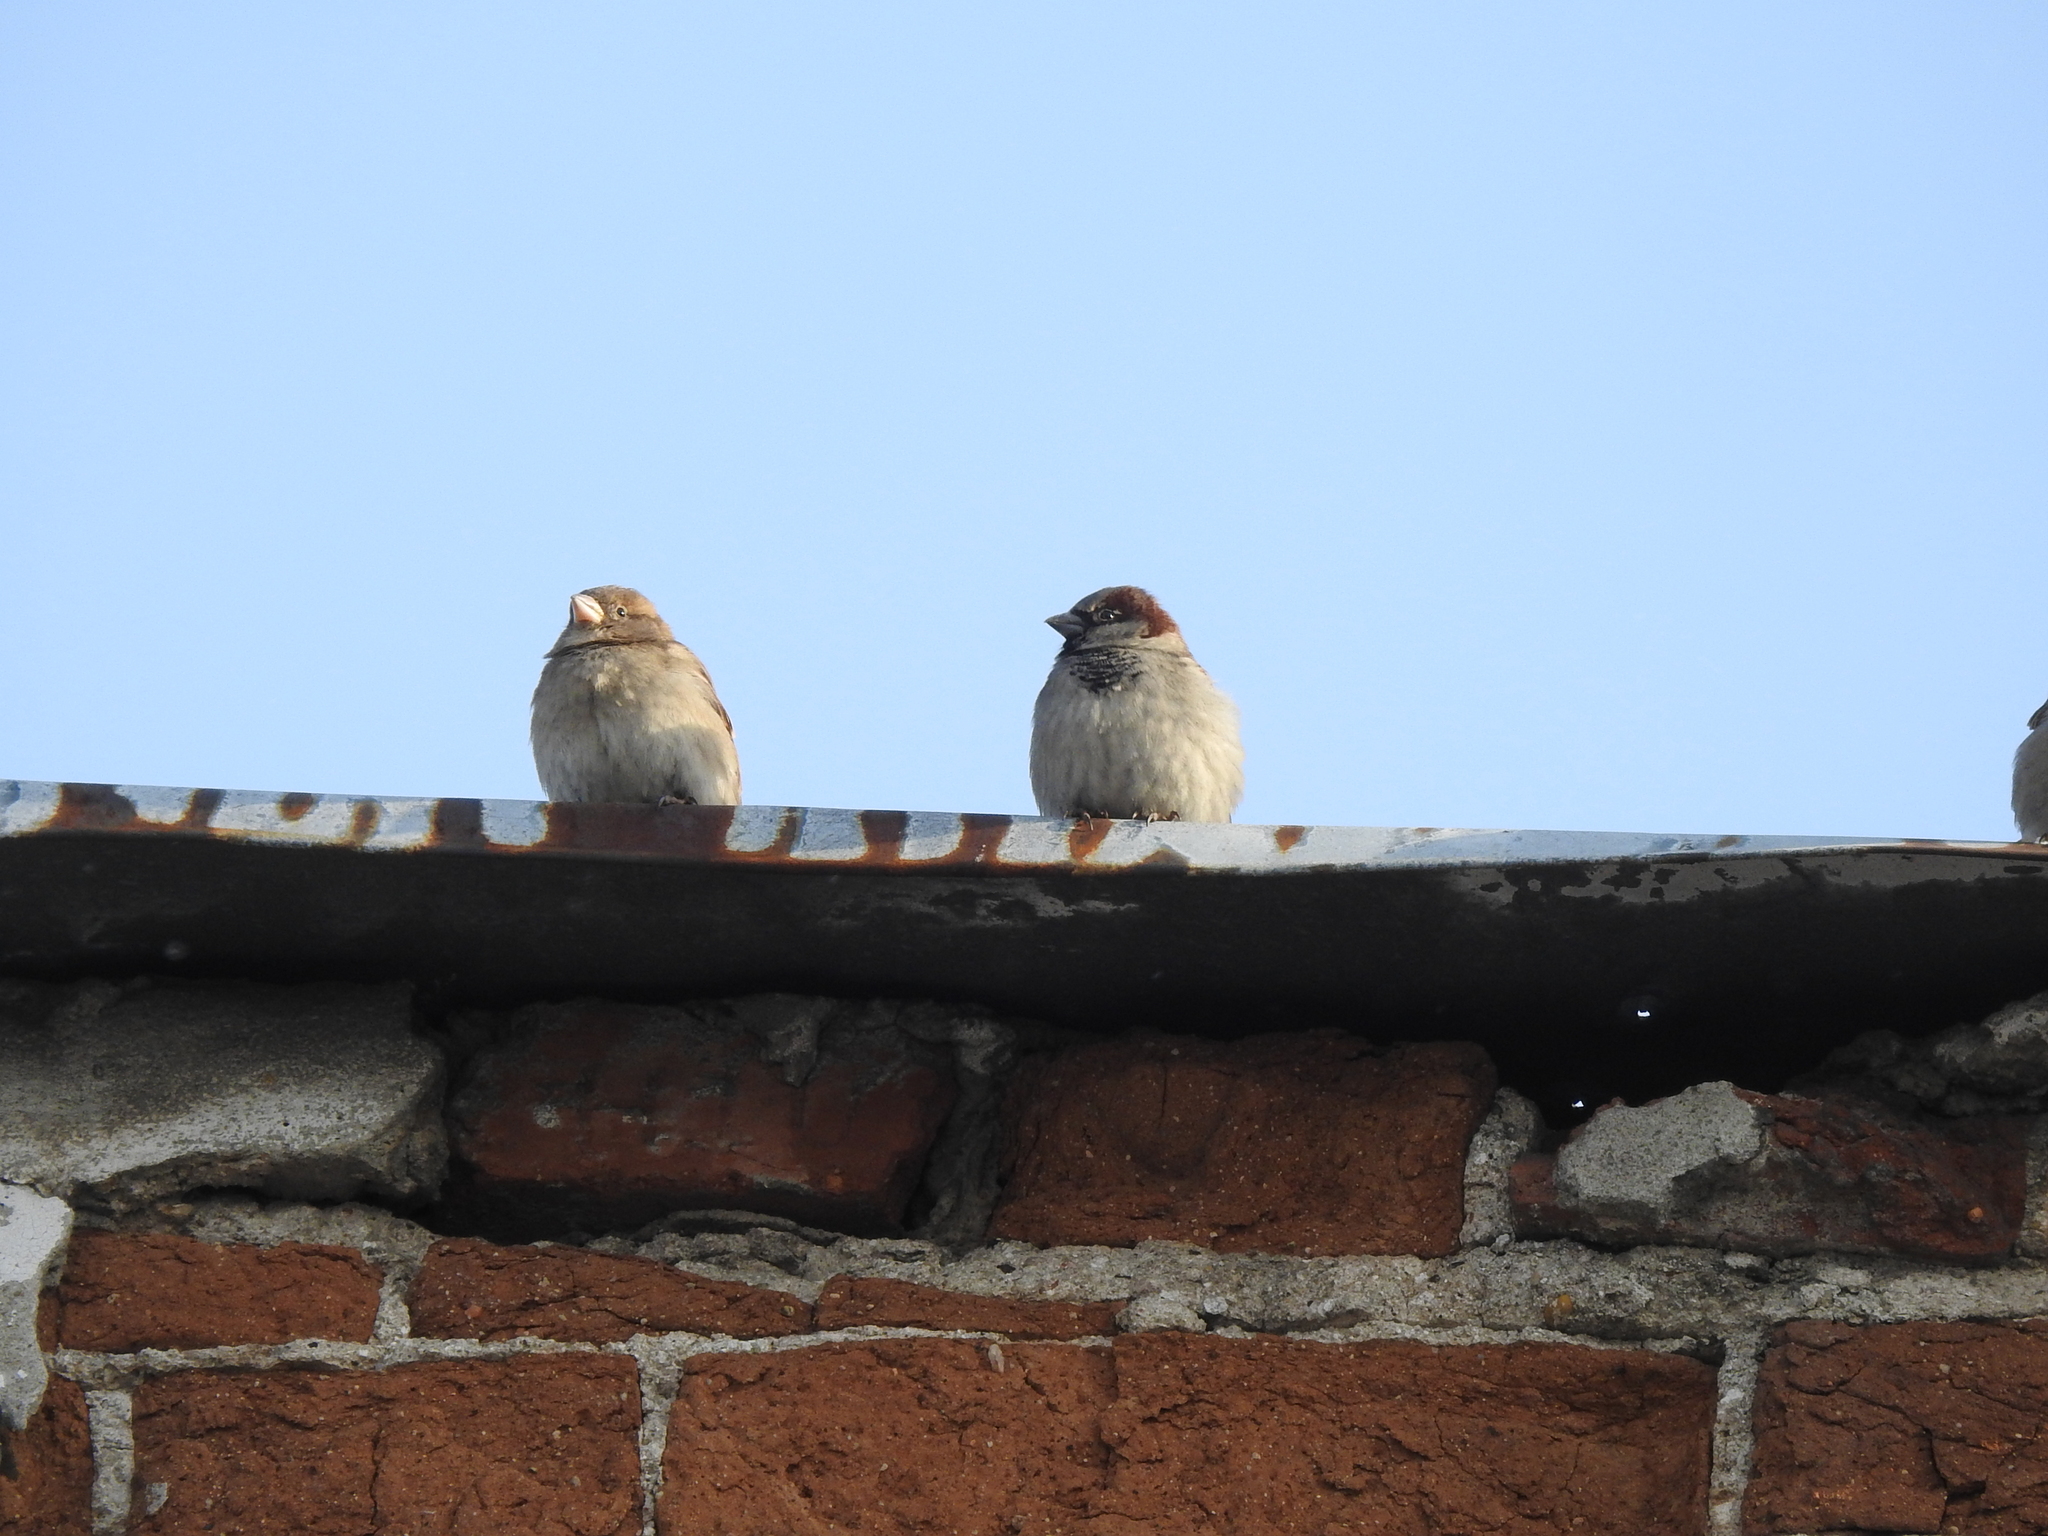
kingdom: Animalia
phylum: Chordata
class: Aves
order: Passeriformes
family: Passeridae
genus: Passer
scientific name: Passer domesticus
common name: House sparrow
